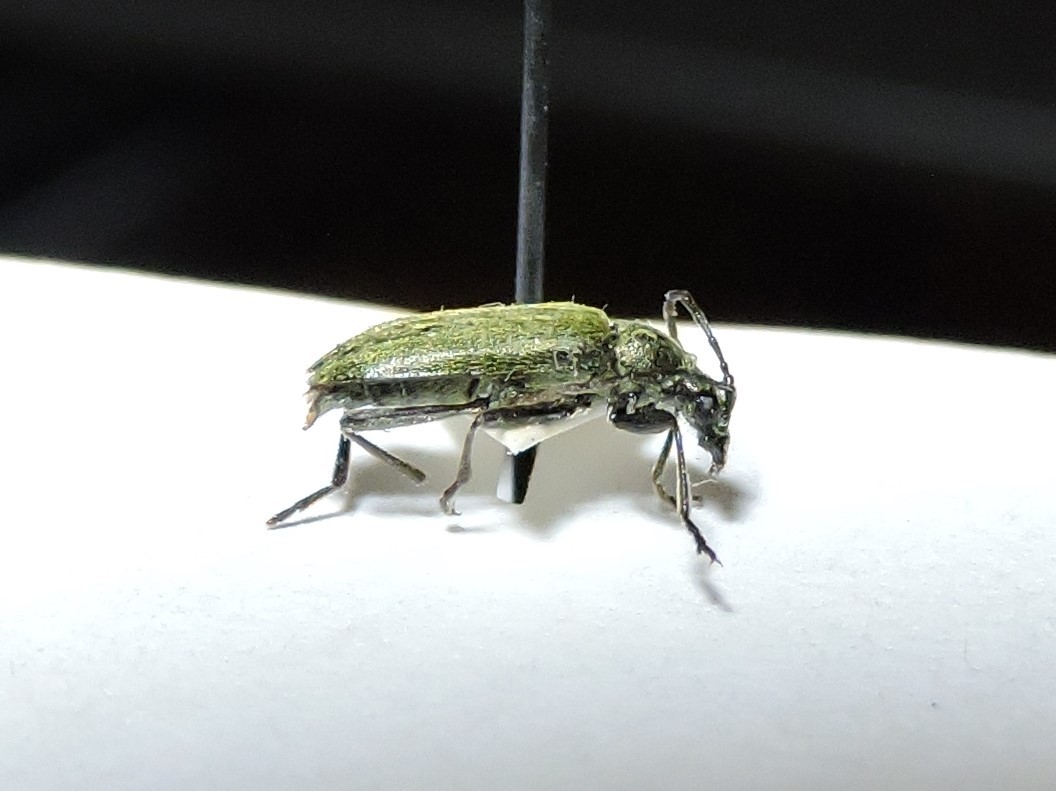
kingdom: Animalia
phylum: Arthropoda
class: Insecta
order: Coleoptera
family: Cerambycidae
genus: Acmaeops
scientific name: Acmaeops smaragdulus
